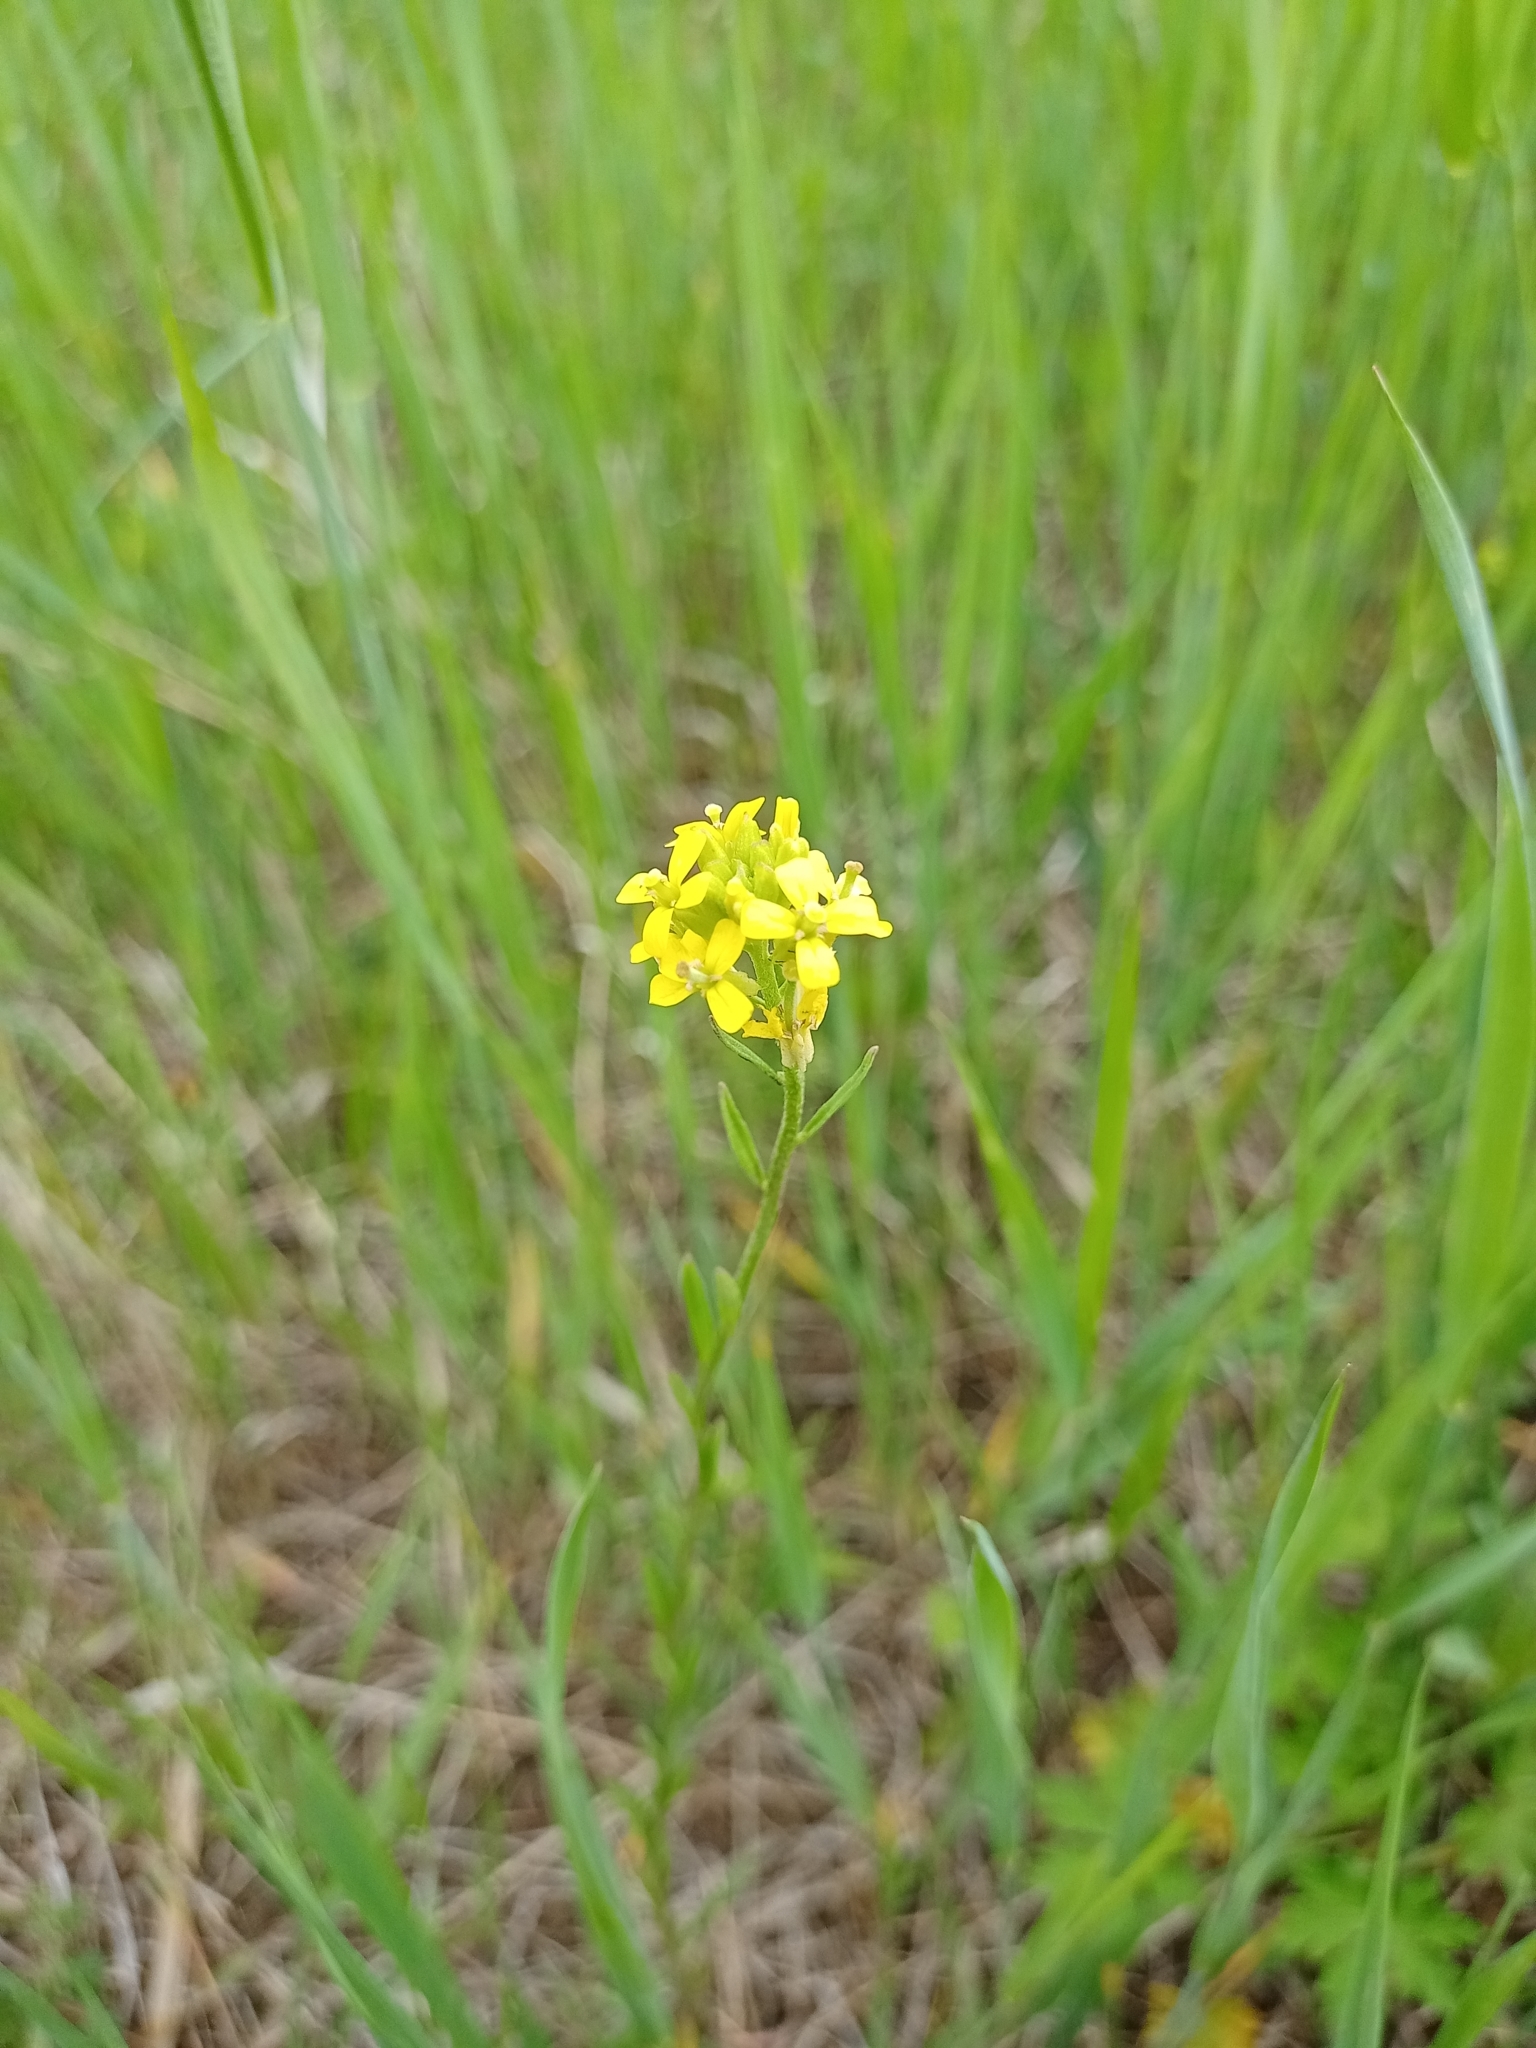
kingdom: Plantae
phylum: Tracheophyta
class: Magnoliopsida
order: Brassicales
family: Brassicaceae
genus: Erysimum
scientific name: Erysimum hieraciifolium
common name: European wallflower
